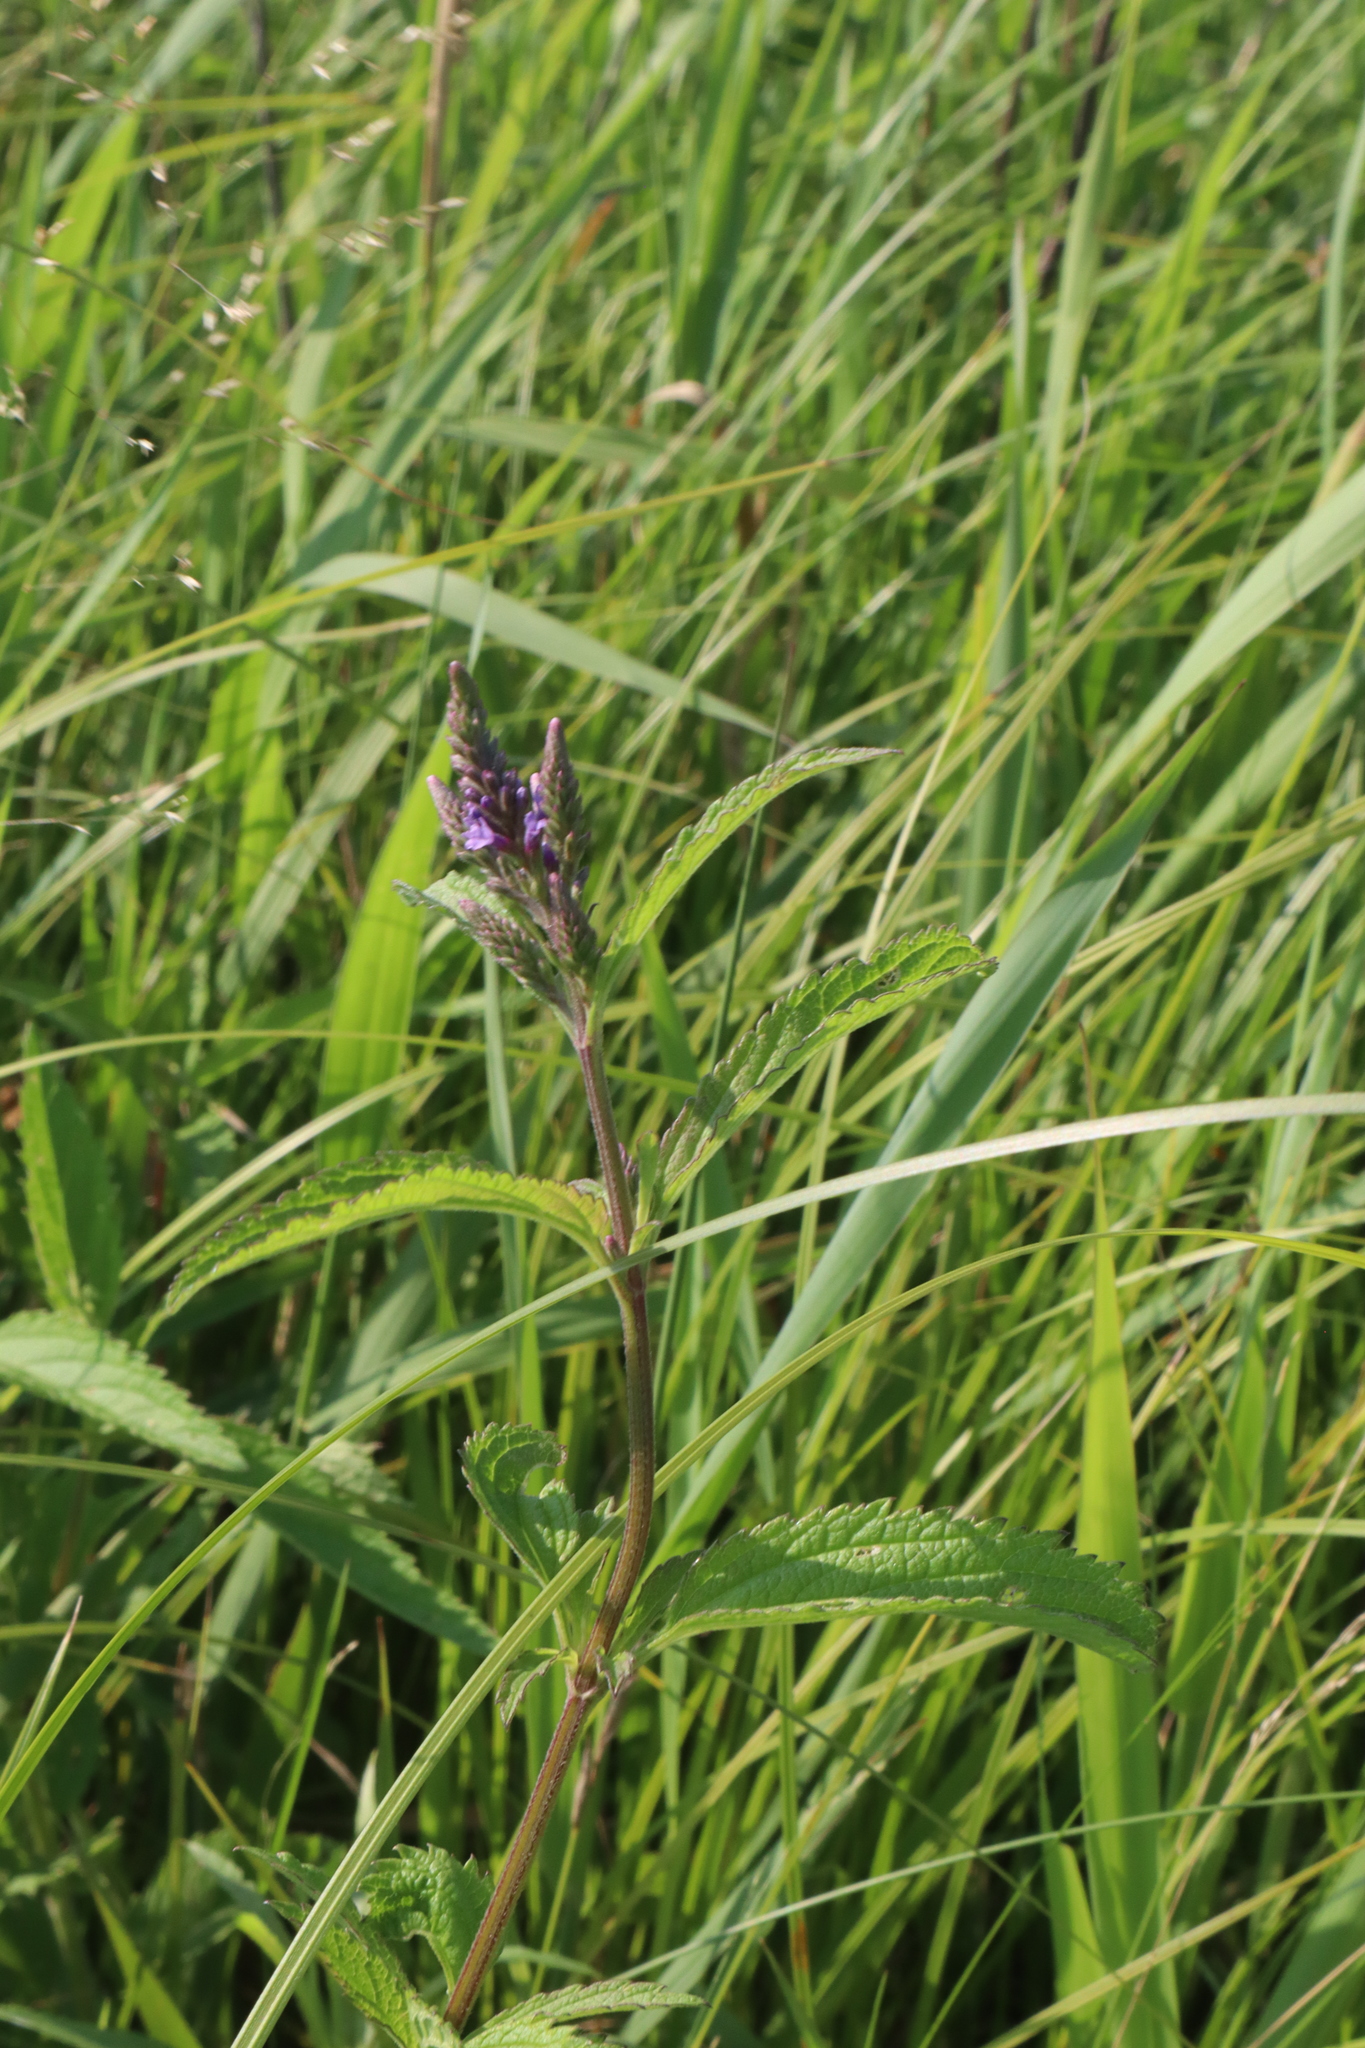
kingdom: Plantae
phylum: Tracheophyta
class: Magnoliopsida
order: Lamiales
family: Verbenaceae
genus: Verbena
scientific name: Verbena hastata
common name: American blue vervain
